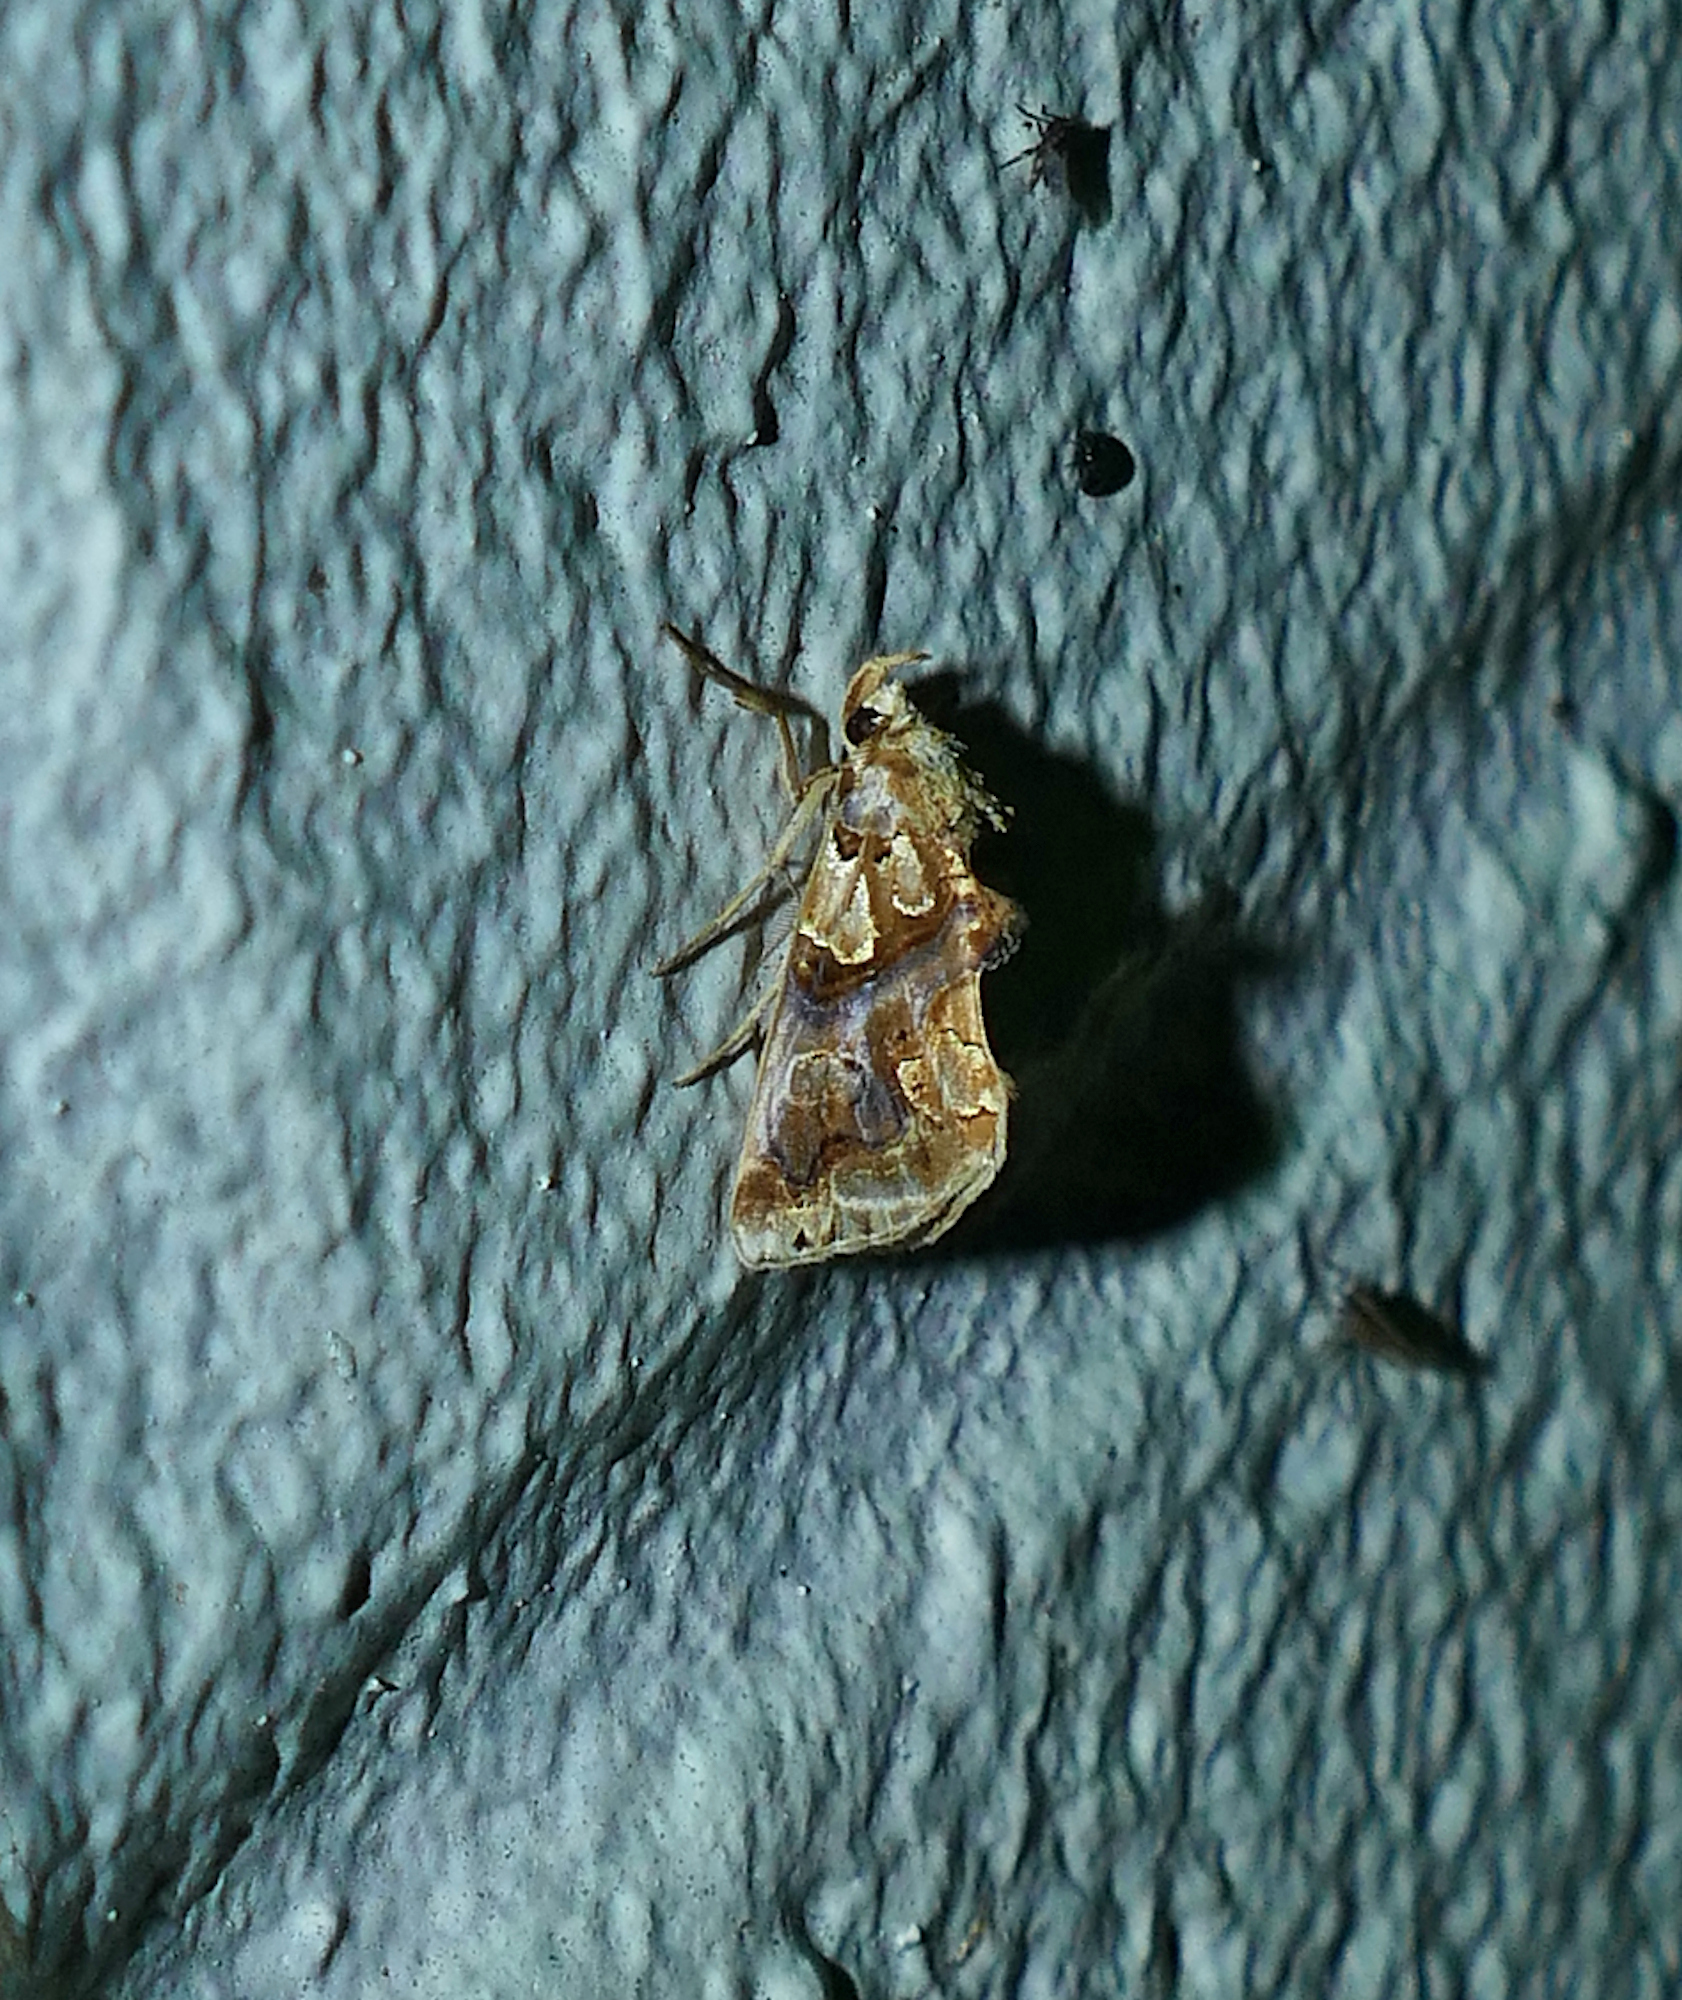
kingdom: Animalia
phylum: Arthropoda
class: Insecta
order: Lepidoptera
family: Erebidae
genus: Plusiodonta
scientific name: Plusiodonta compressipalpis
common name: Moonseed moth
